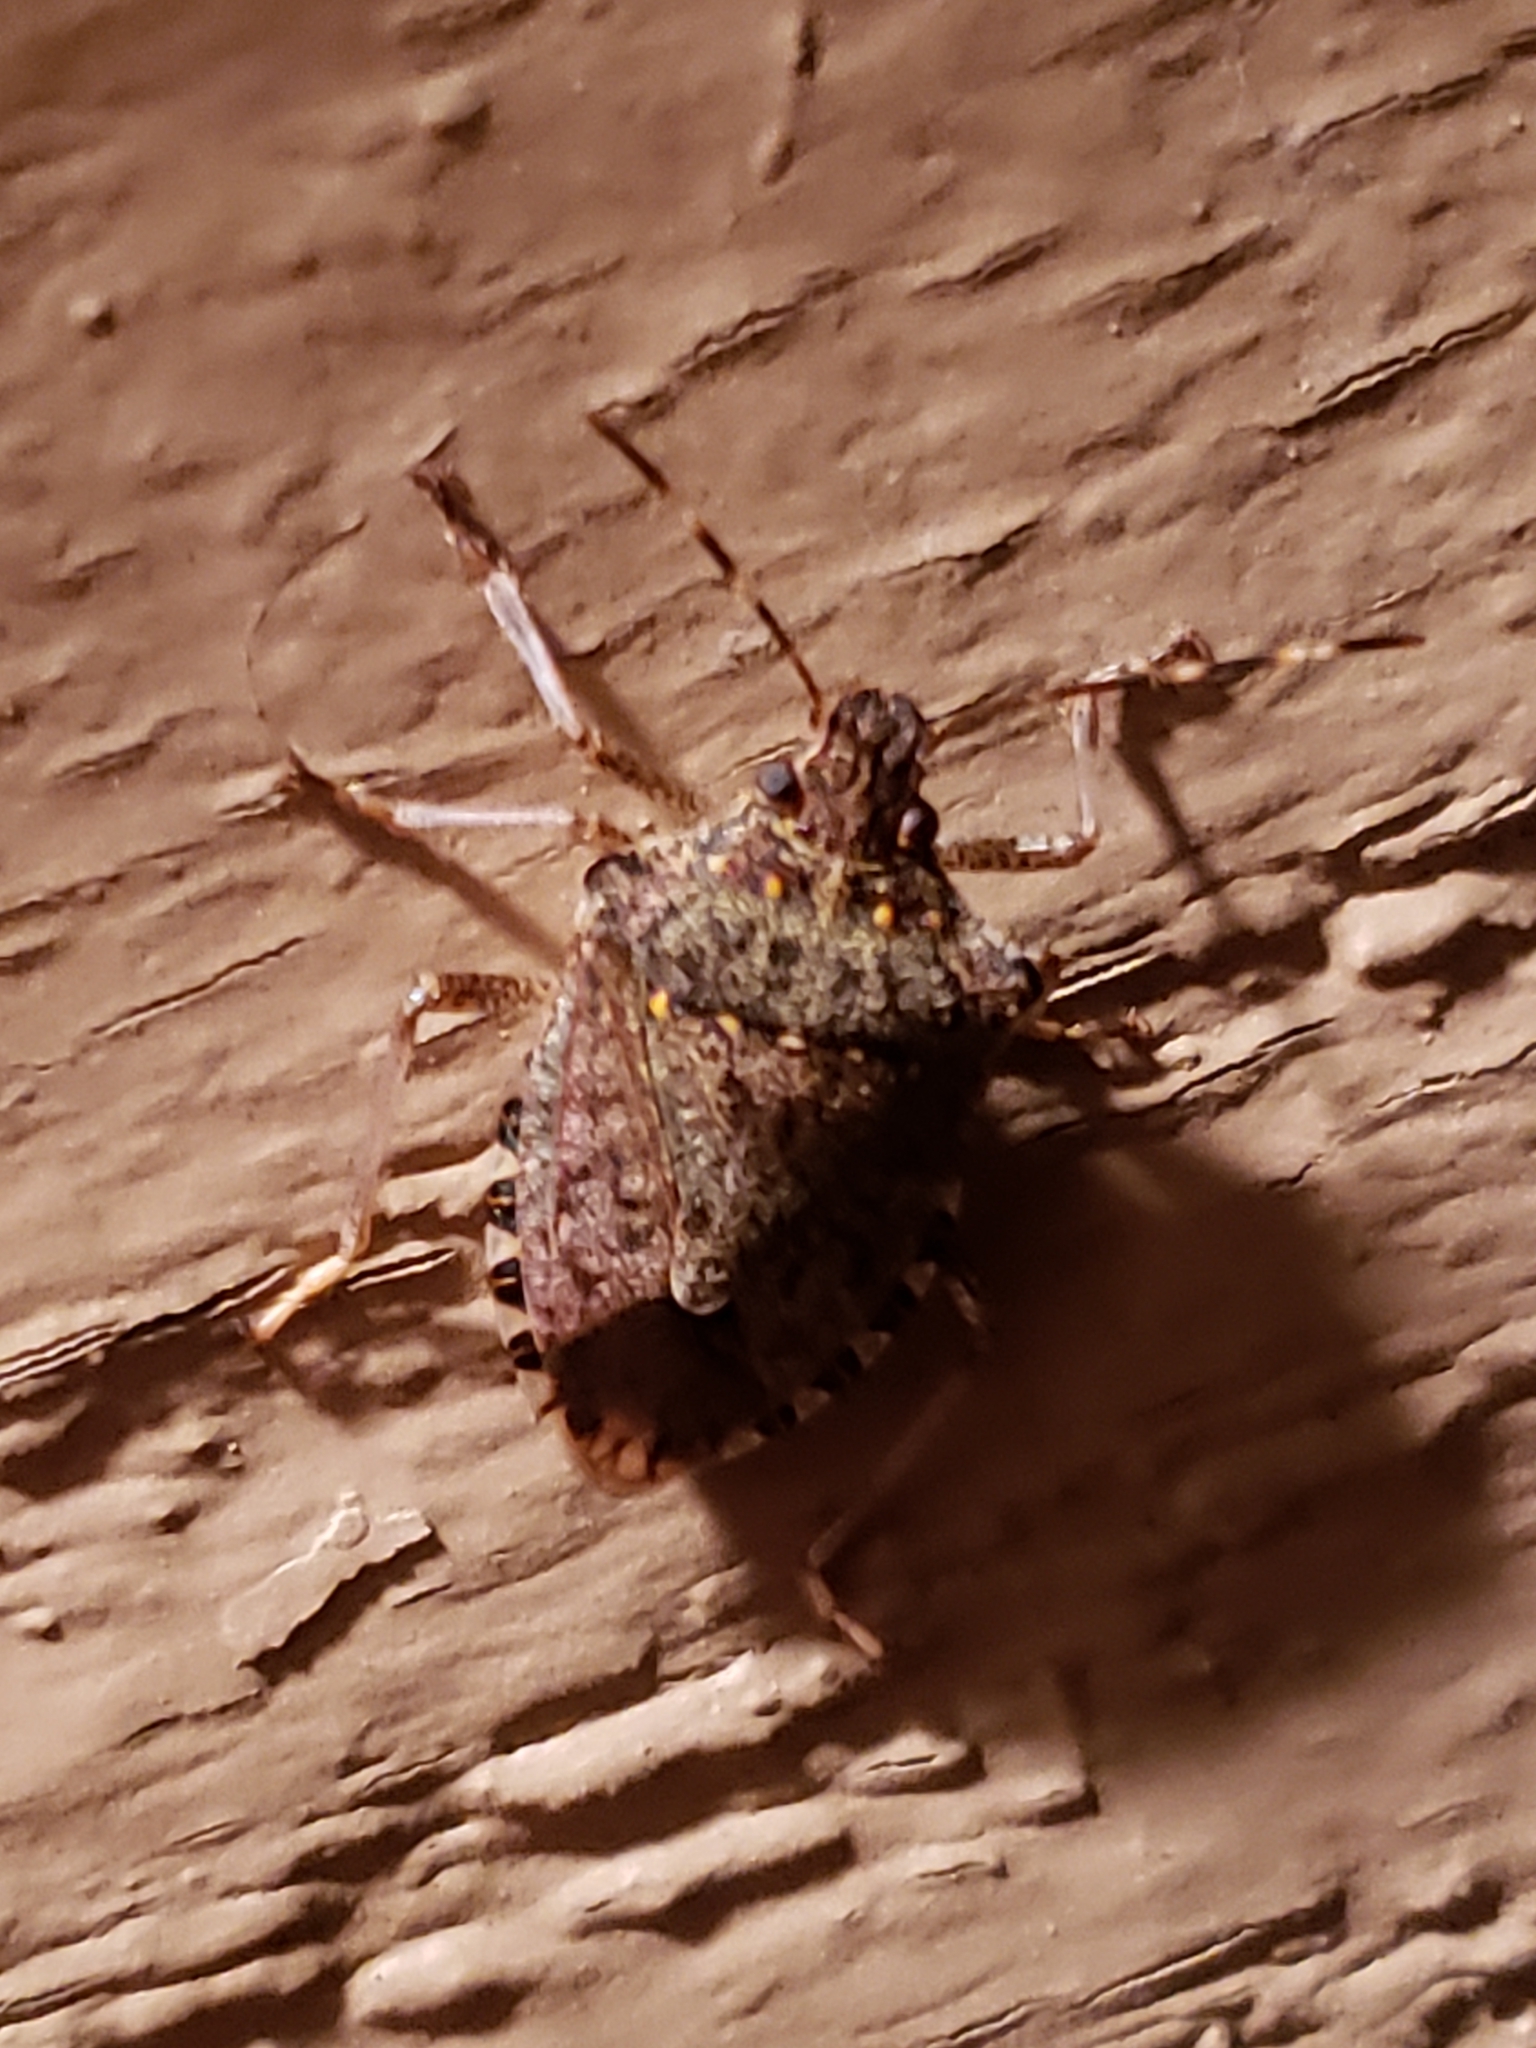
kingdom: Animalia
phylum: Arthropoda
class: Insecta
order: Hemiptera
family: Pentatomidae
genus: Halyomorpha
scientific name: Halyomorpha halys
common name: Brown marmorated stink bug
